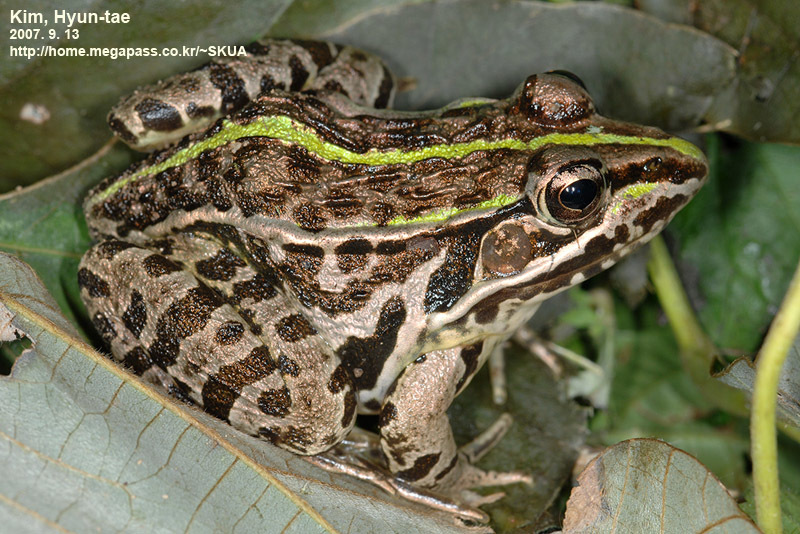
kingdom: Animalia
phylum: Chordata
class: Amphibia
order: Anura
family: Ranidae
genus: Pelophylax
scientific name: Pelophylax nigromaculatus
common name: Black-spotted pond frog
